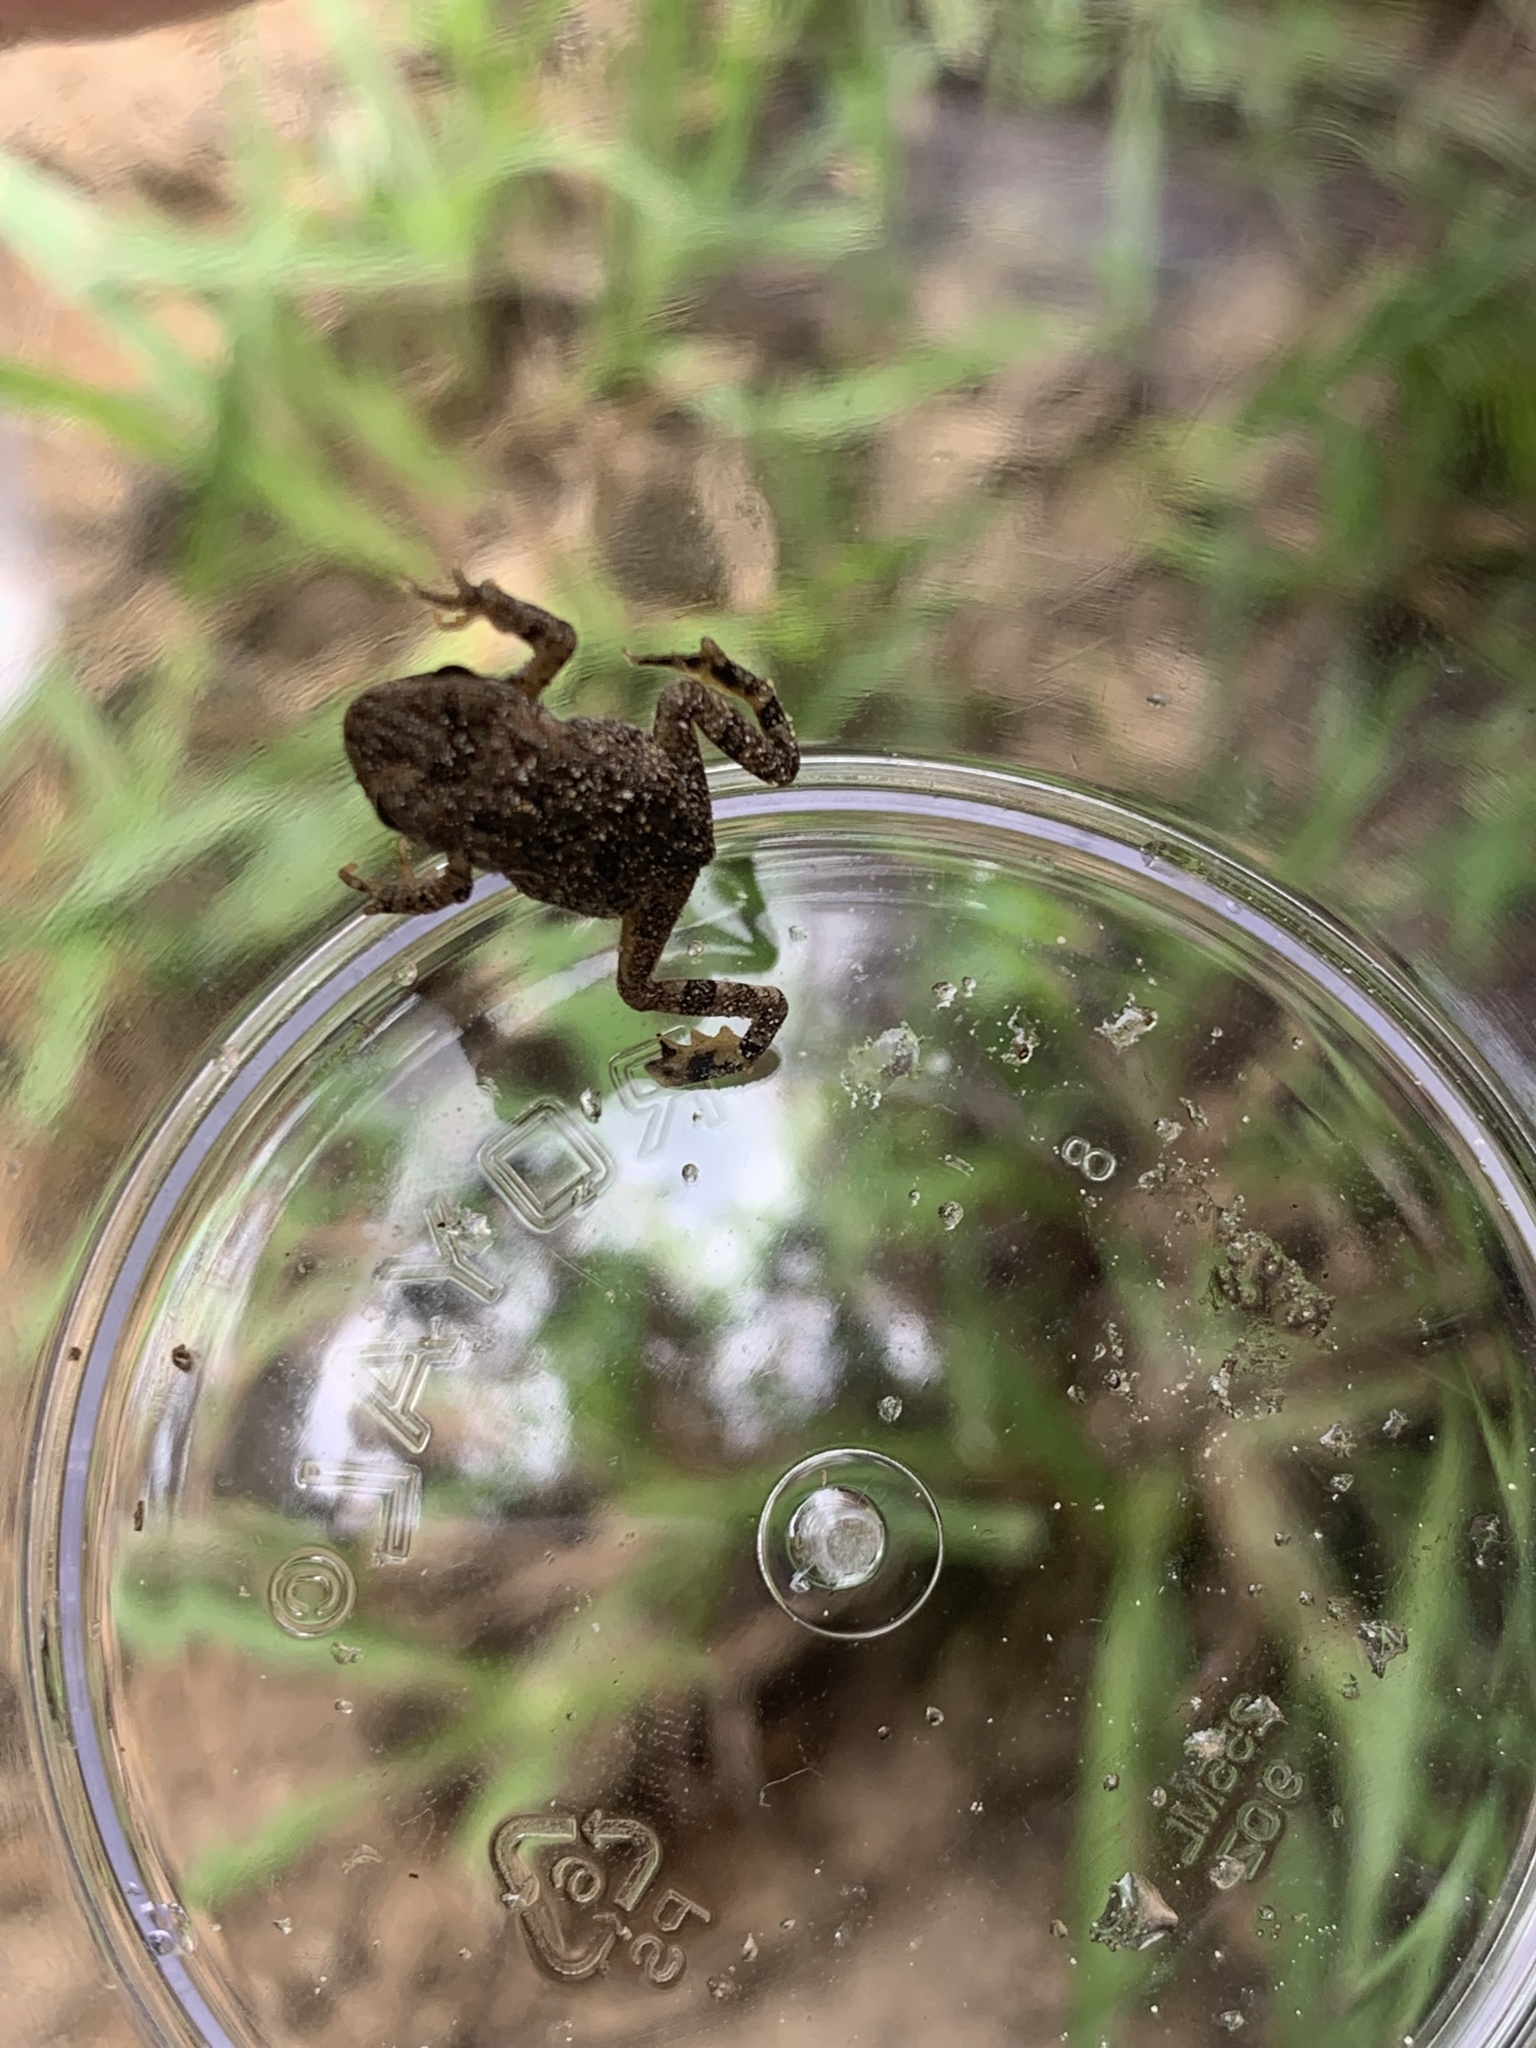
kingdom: Animalia
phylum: Chordata
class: Amphibia
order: Anura
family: Bufonidae
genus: Anaxyrus
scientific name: Anaxyrus
